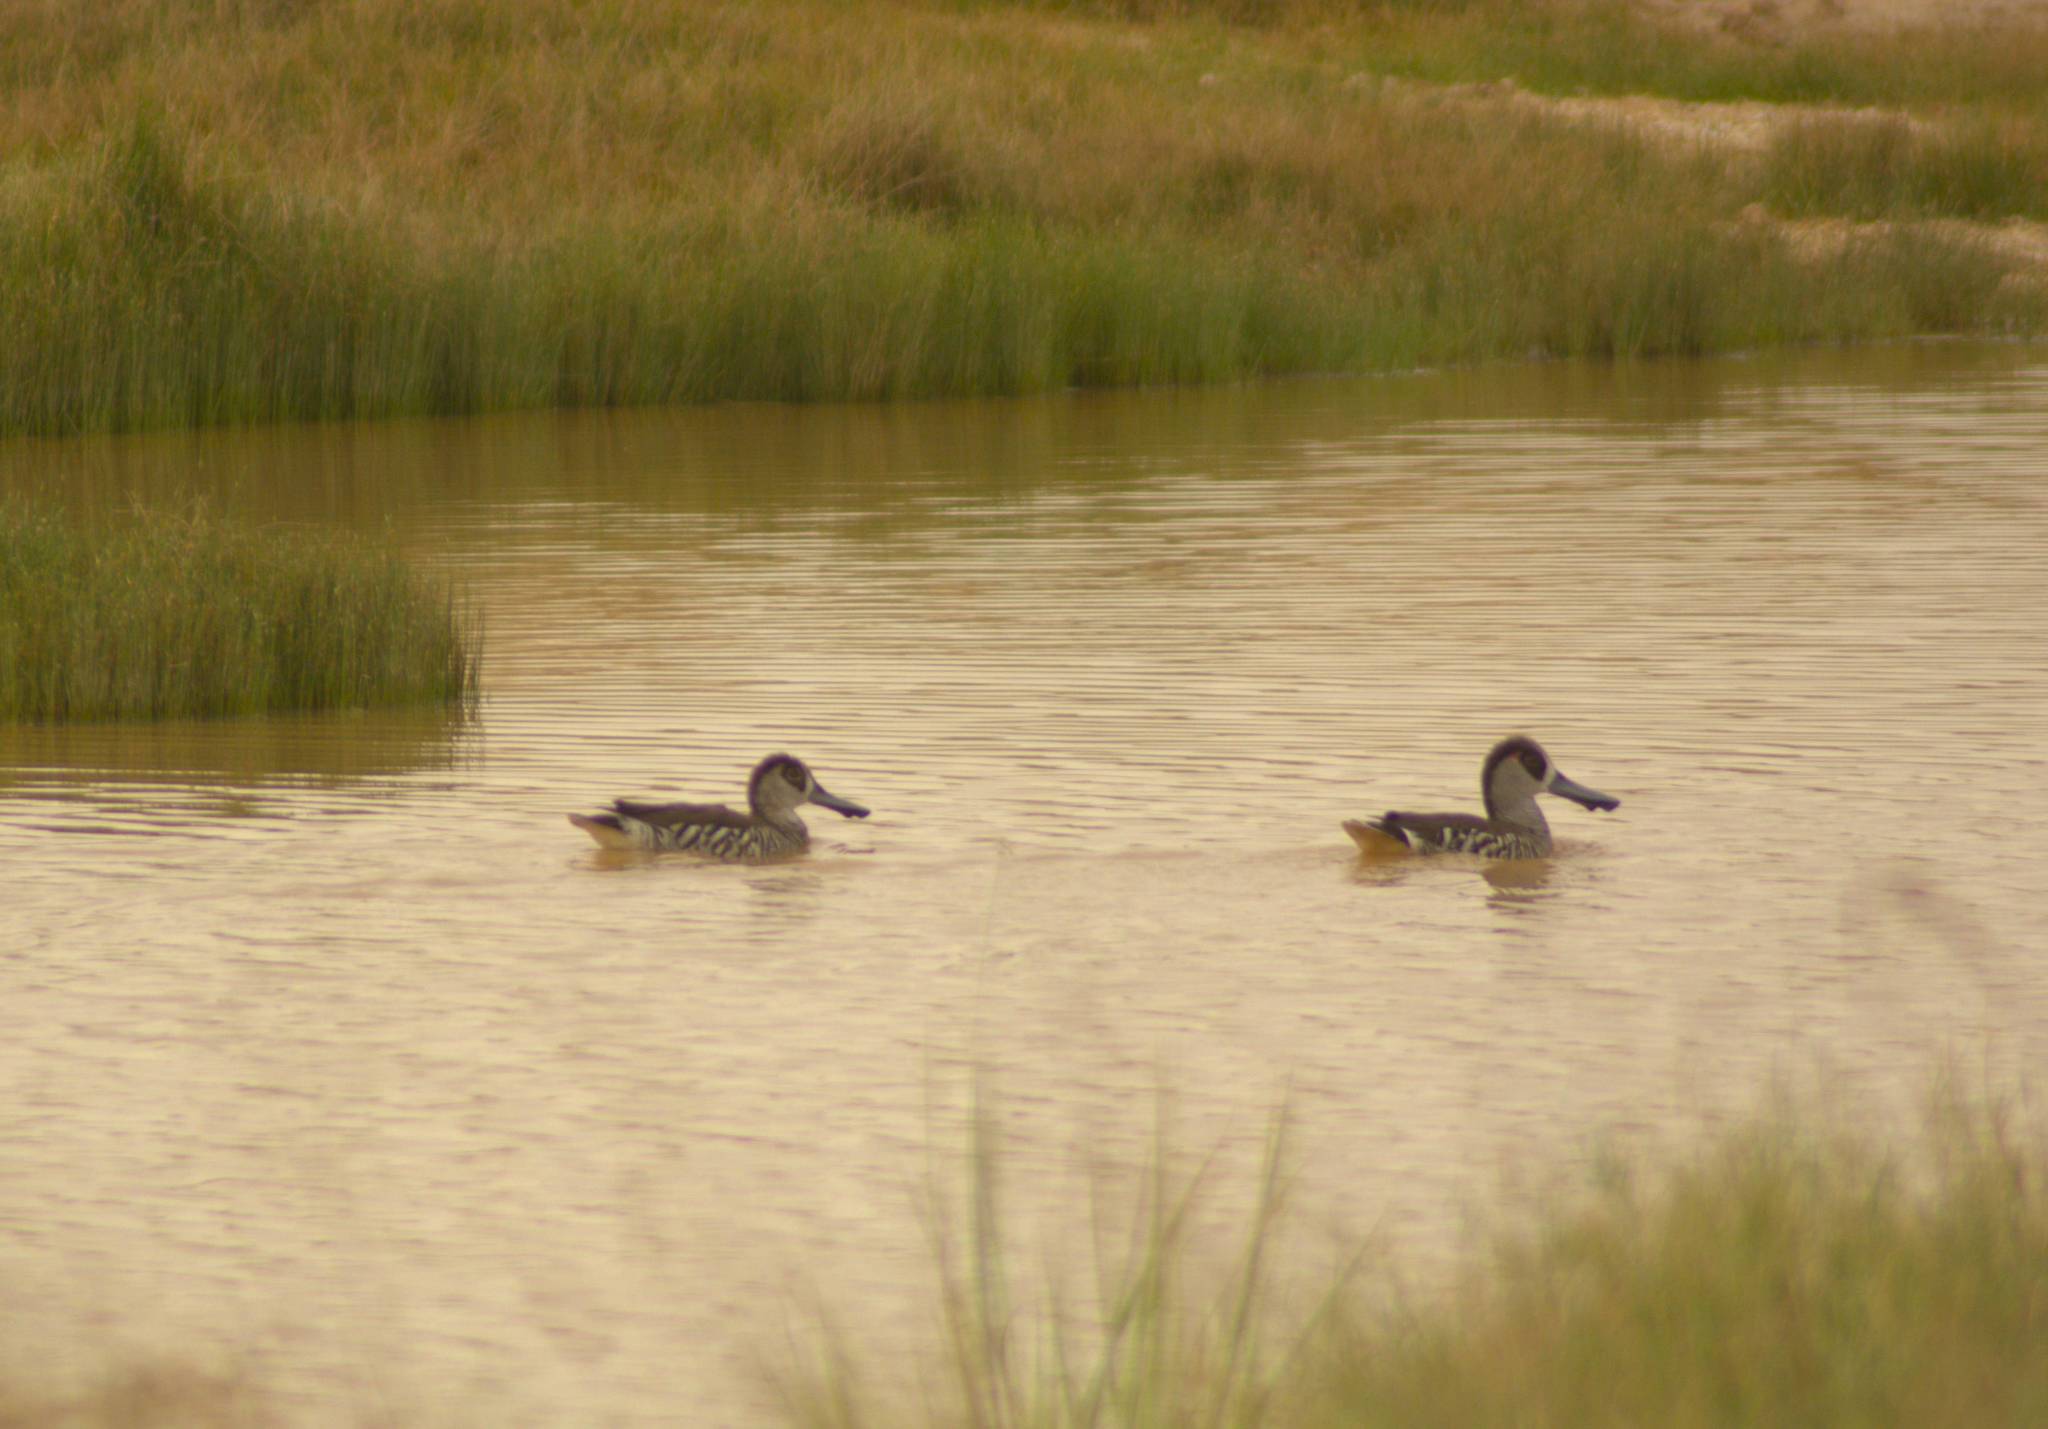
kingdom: Animalia
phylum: Chordata
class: Aves
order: Anseriformes
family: Anatidae
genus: Malacorhynchus
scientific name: Malacorhynchus membranaceus
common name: Pink-eared duck
